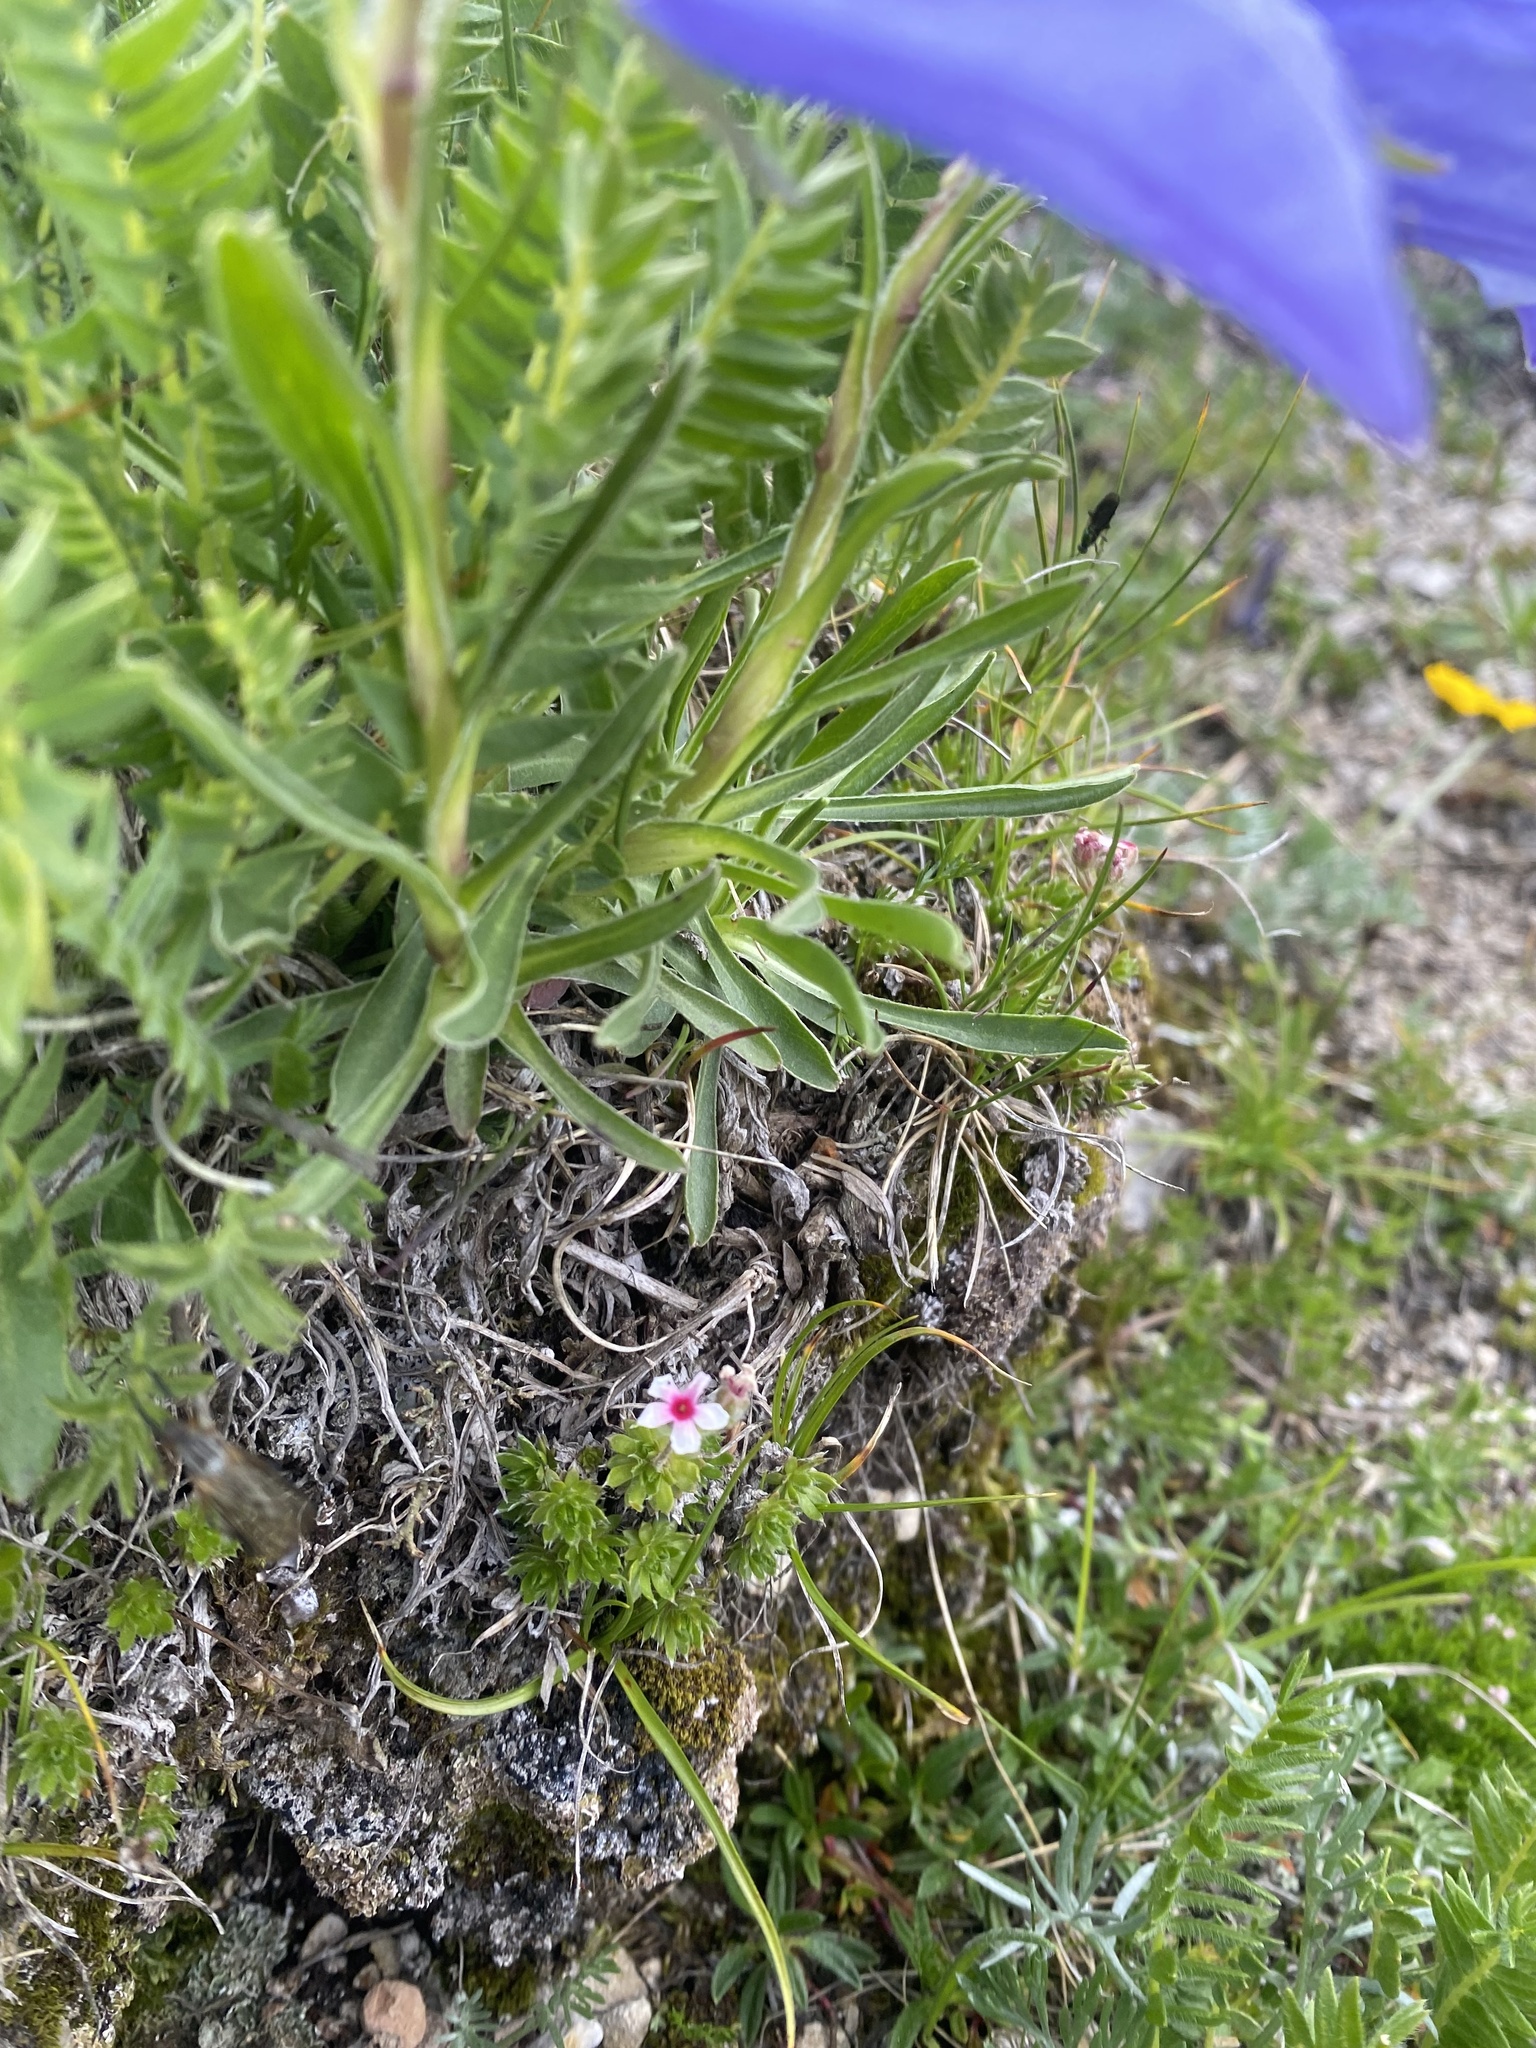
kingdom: Plantae
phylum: Tracheophyta
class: Magnoliopsida
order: Asterales
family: Campanulaceae
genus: Campanula
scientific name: Campanula tridentata
